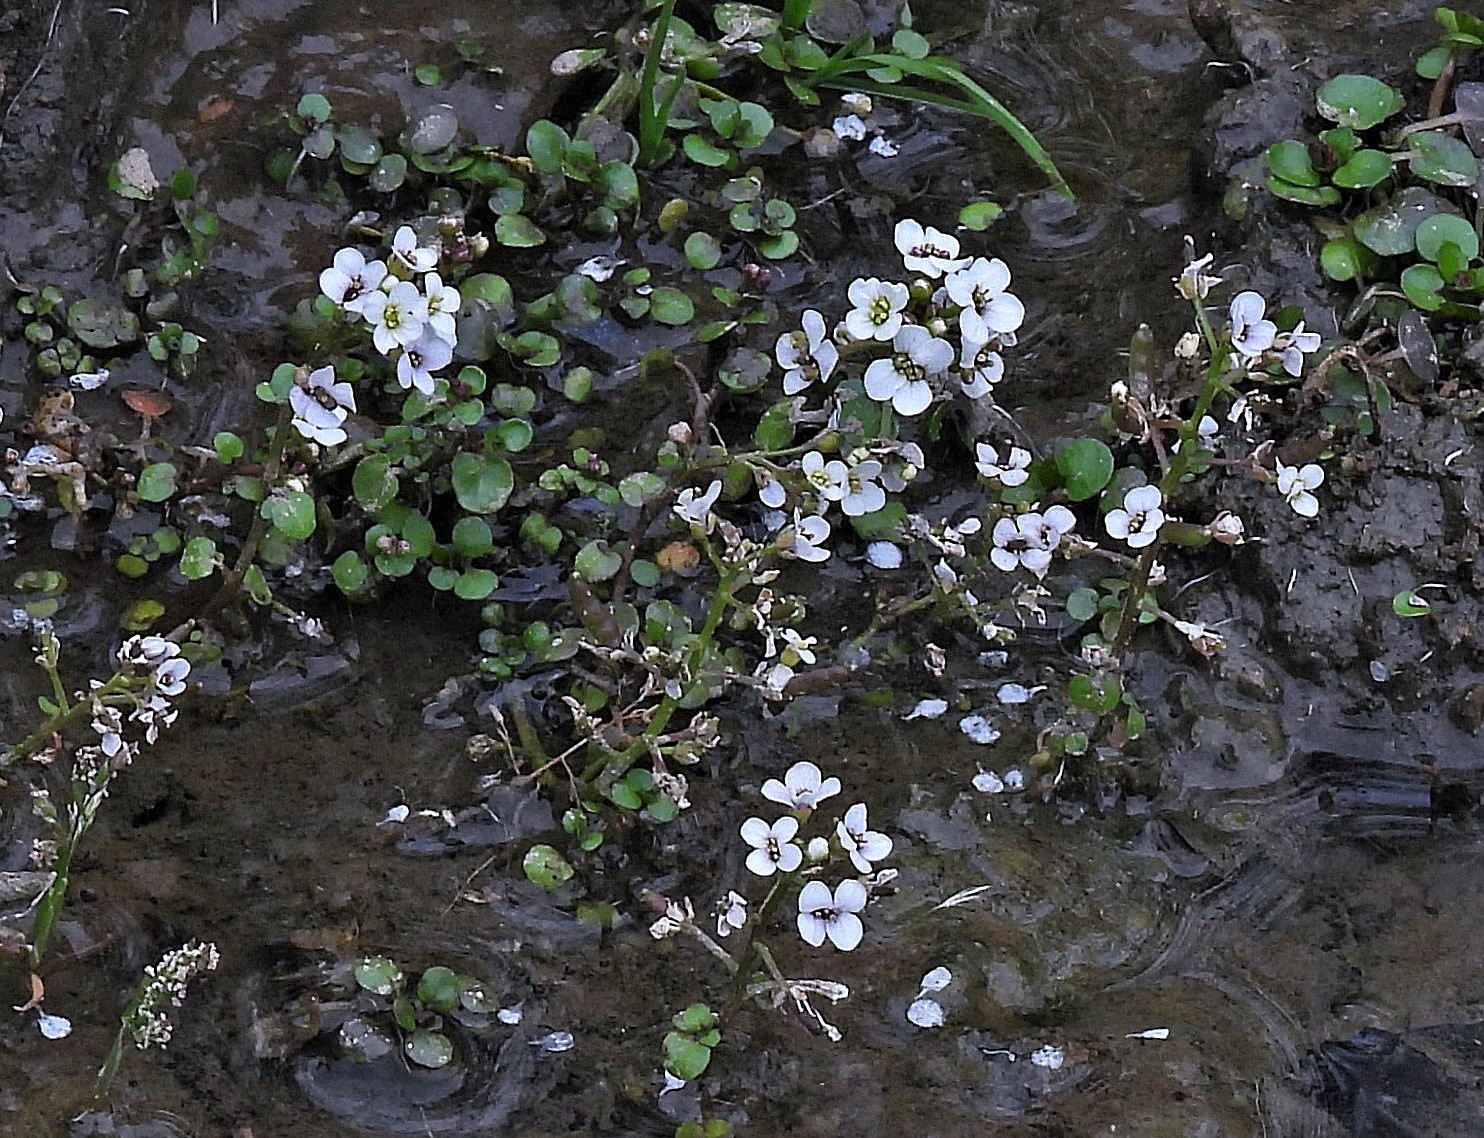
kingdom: Plantae
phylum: Tracheophyta
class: Magnoliopsida
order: Brassicales
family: Brassicaceae
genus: Nasturtium
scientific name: Nasturtium officinale
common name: Watercress
